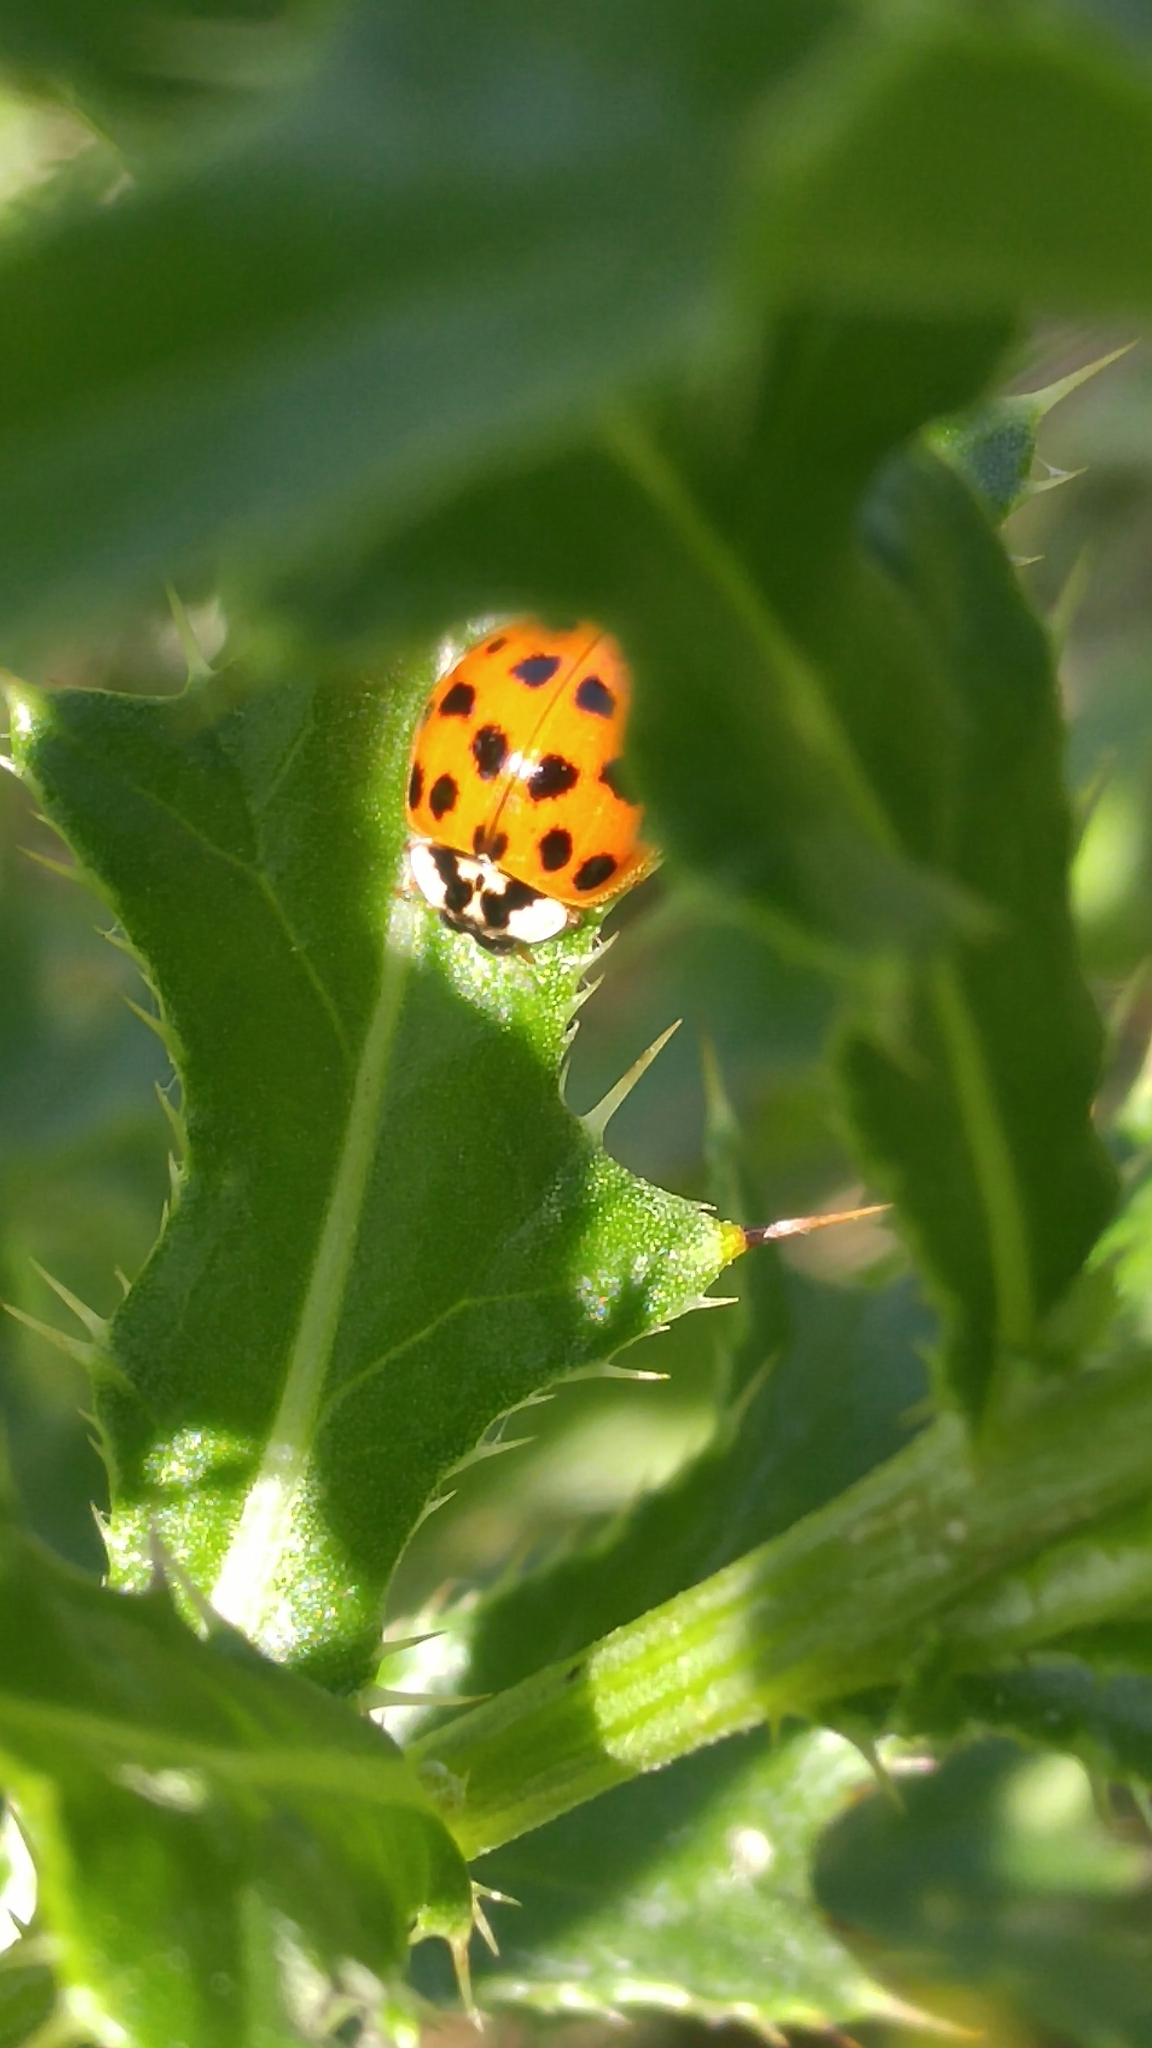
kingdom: Animalia
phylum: Arthropoda
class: Insecta
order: Coleoptera
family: Coccinellidae
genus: Harmonia
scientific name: Harmonia axyridis
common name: Harlequin ladybird
